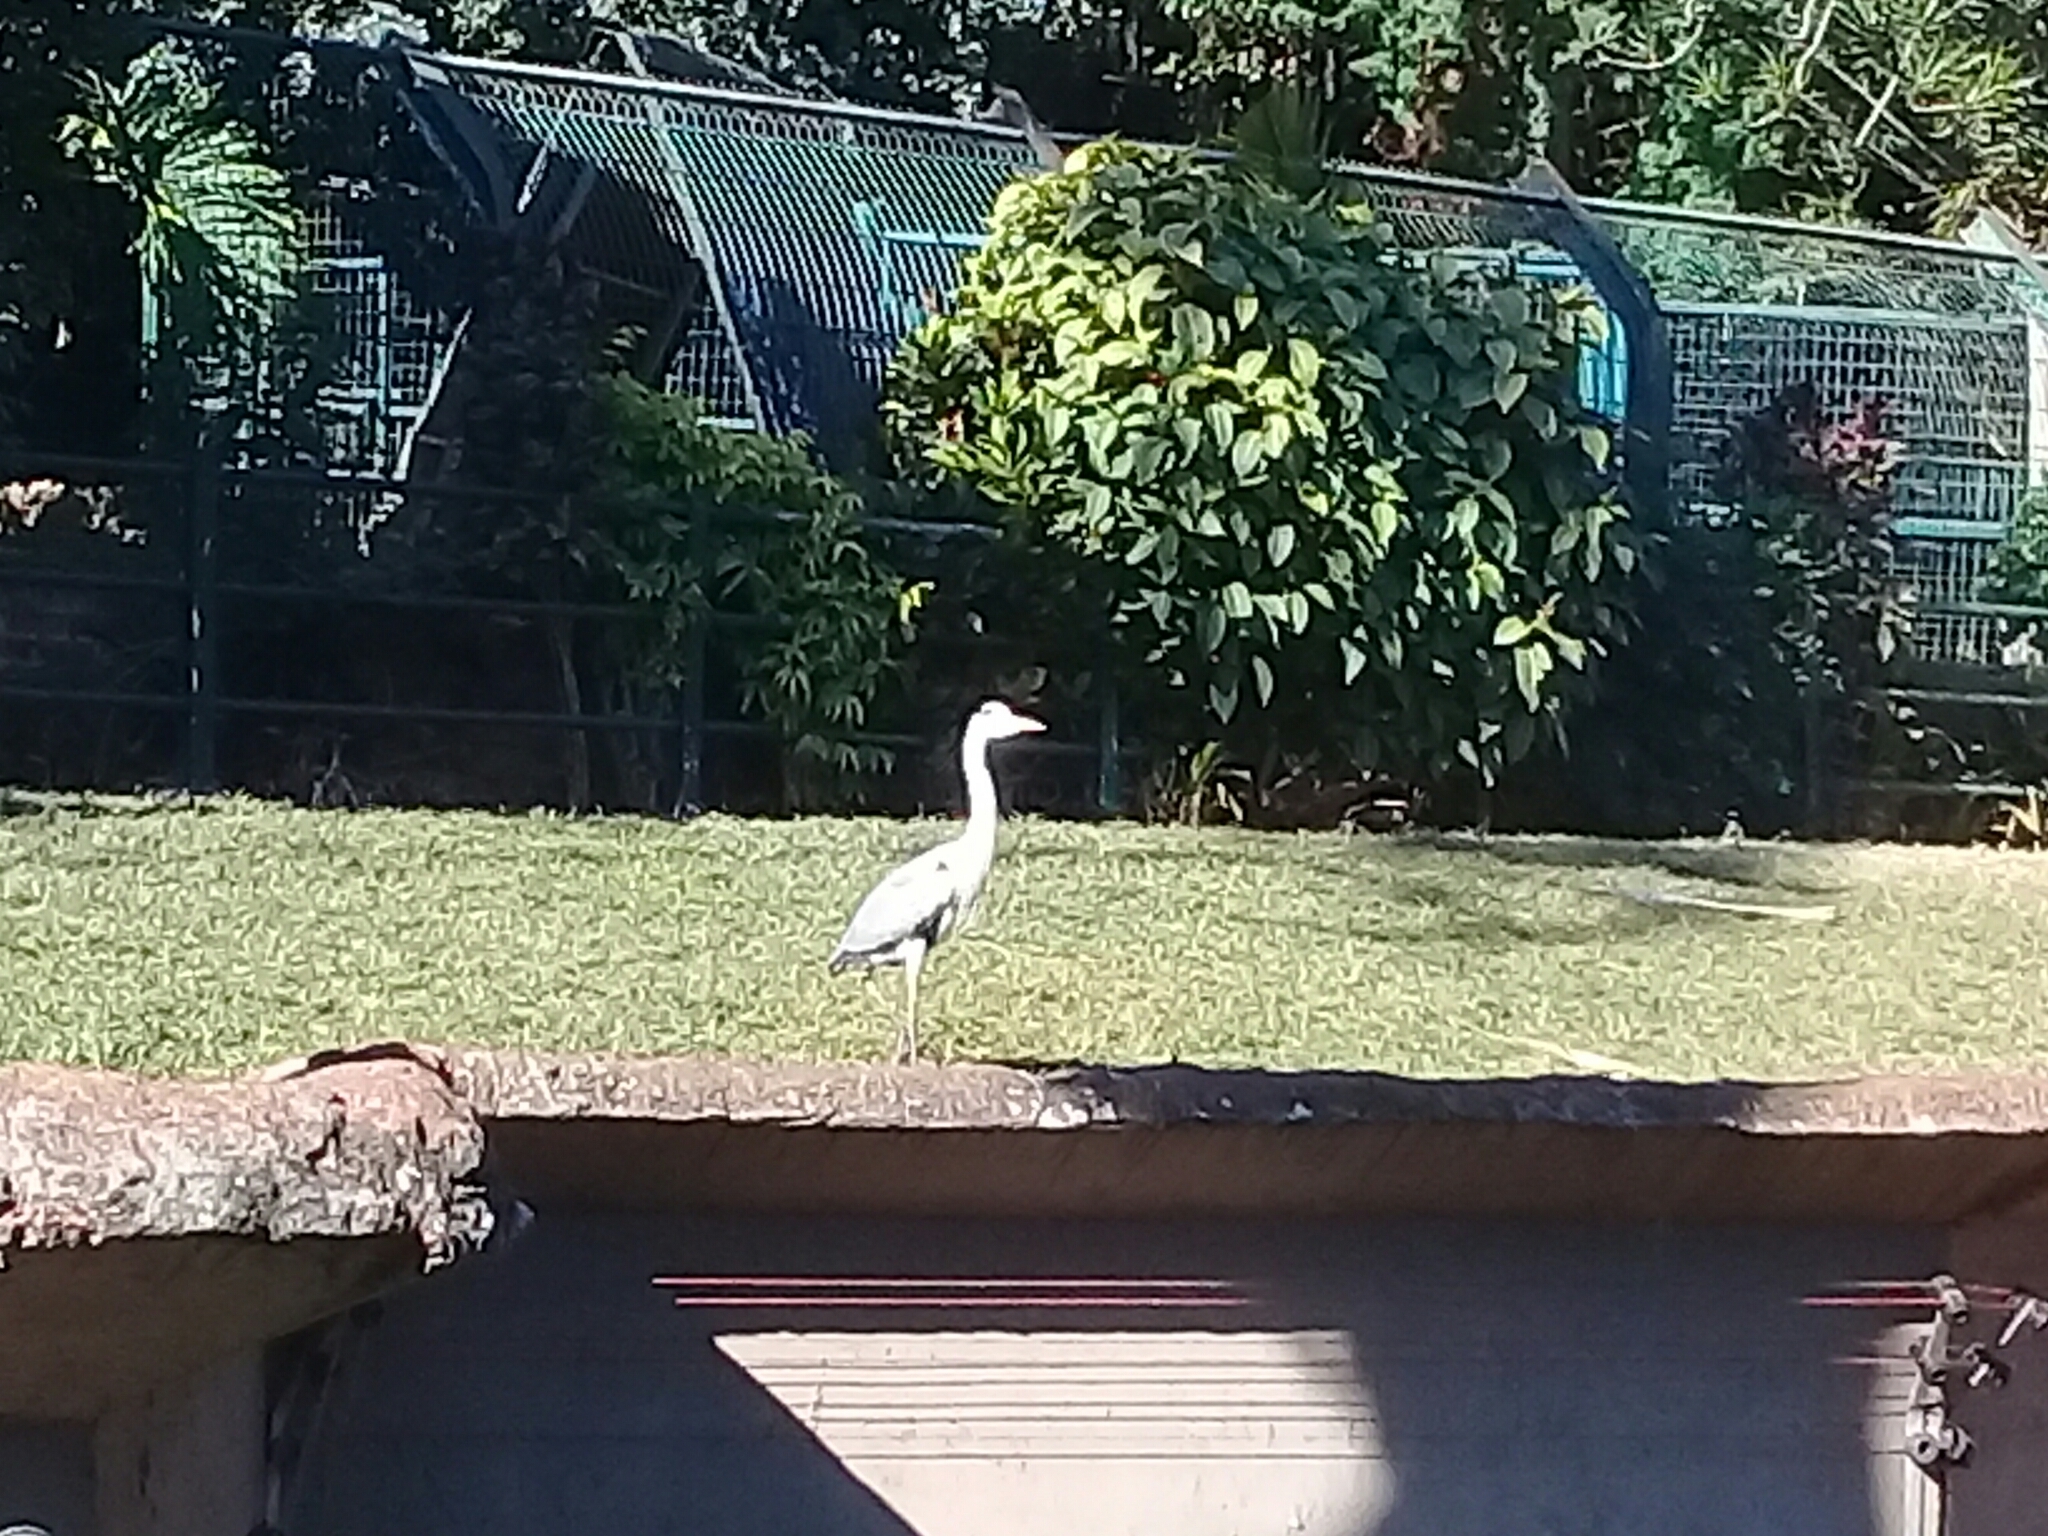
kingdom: Animalia
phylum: Chordata
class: Aves
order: Pelecaniformes
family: Ardeidae
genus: Ardea
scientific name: Ardea cinerea
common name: Grey heron
